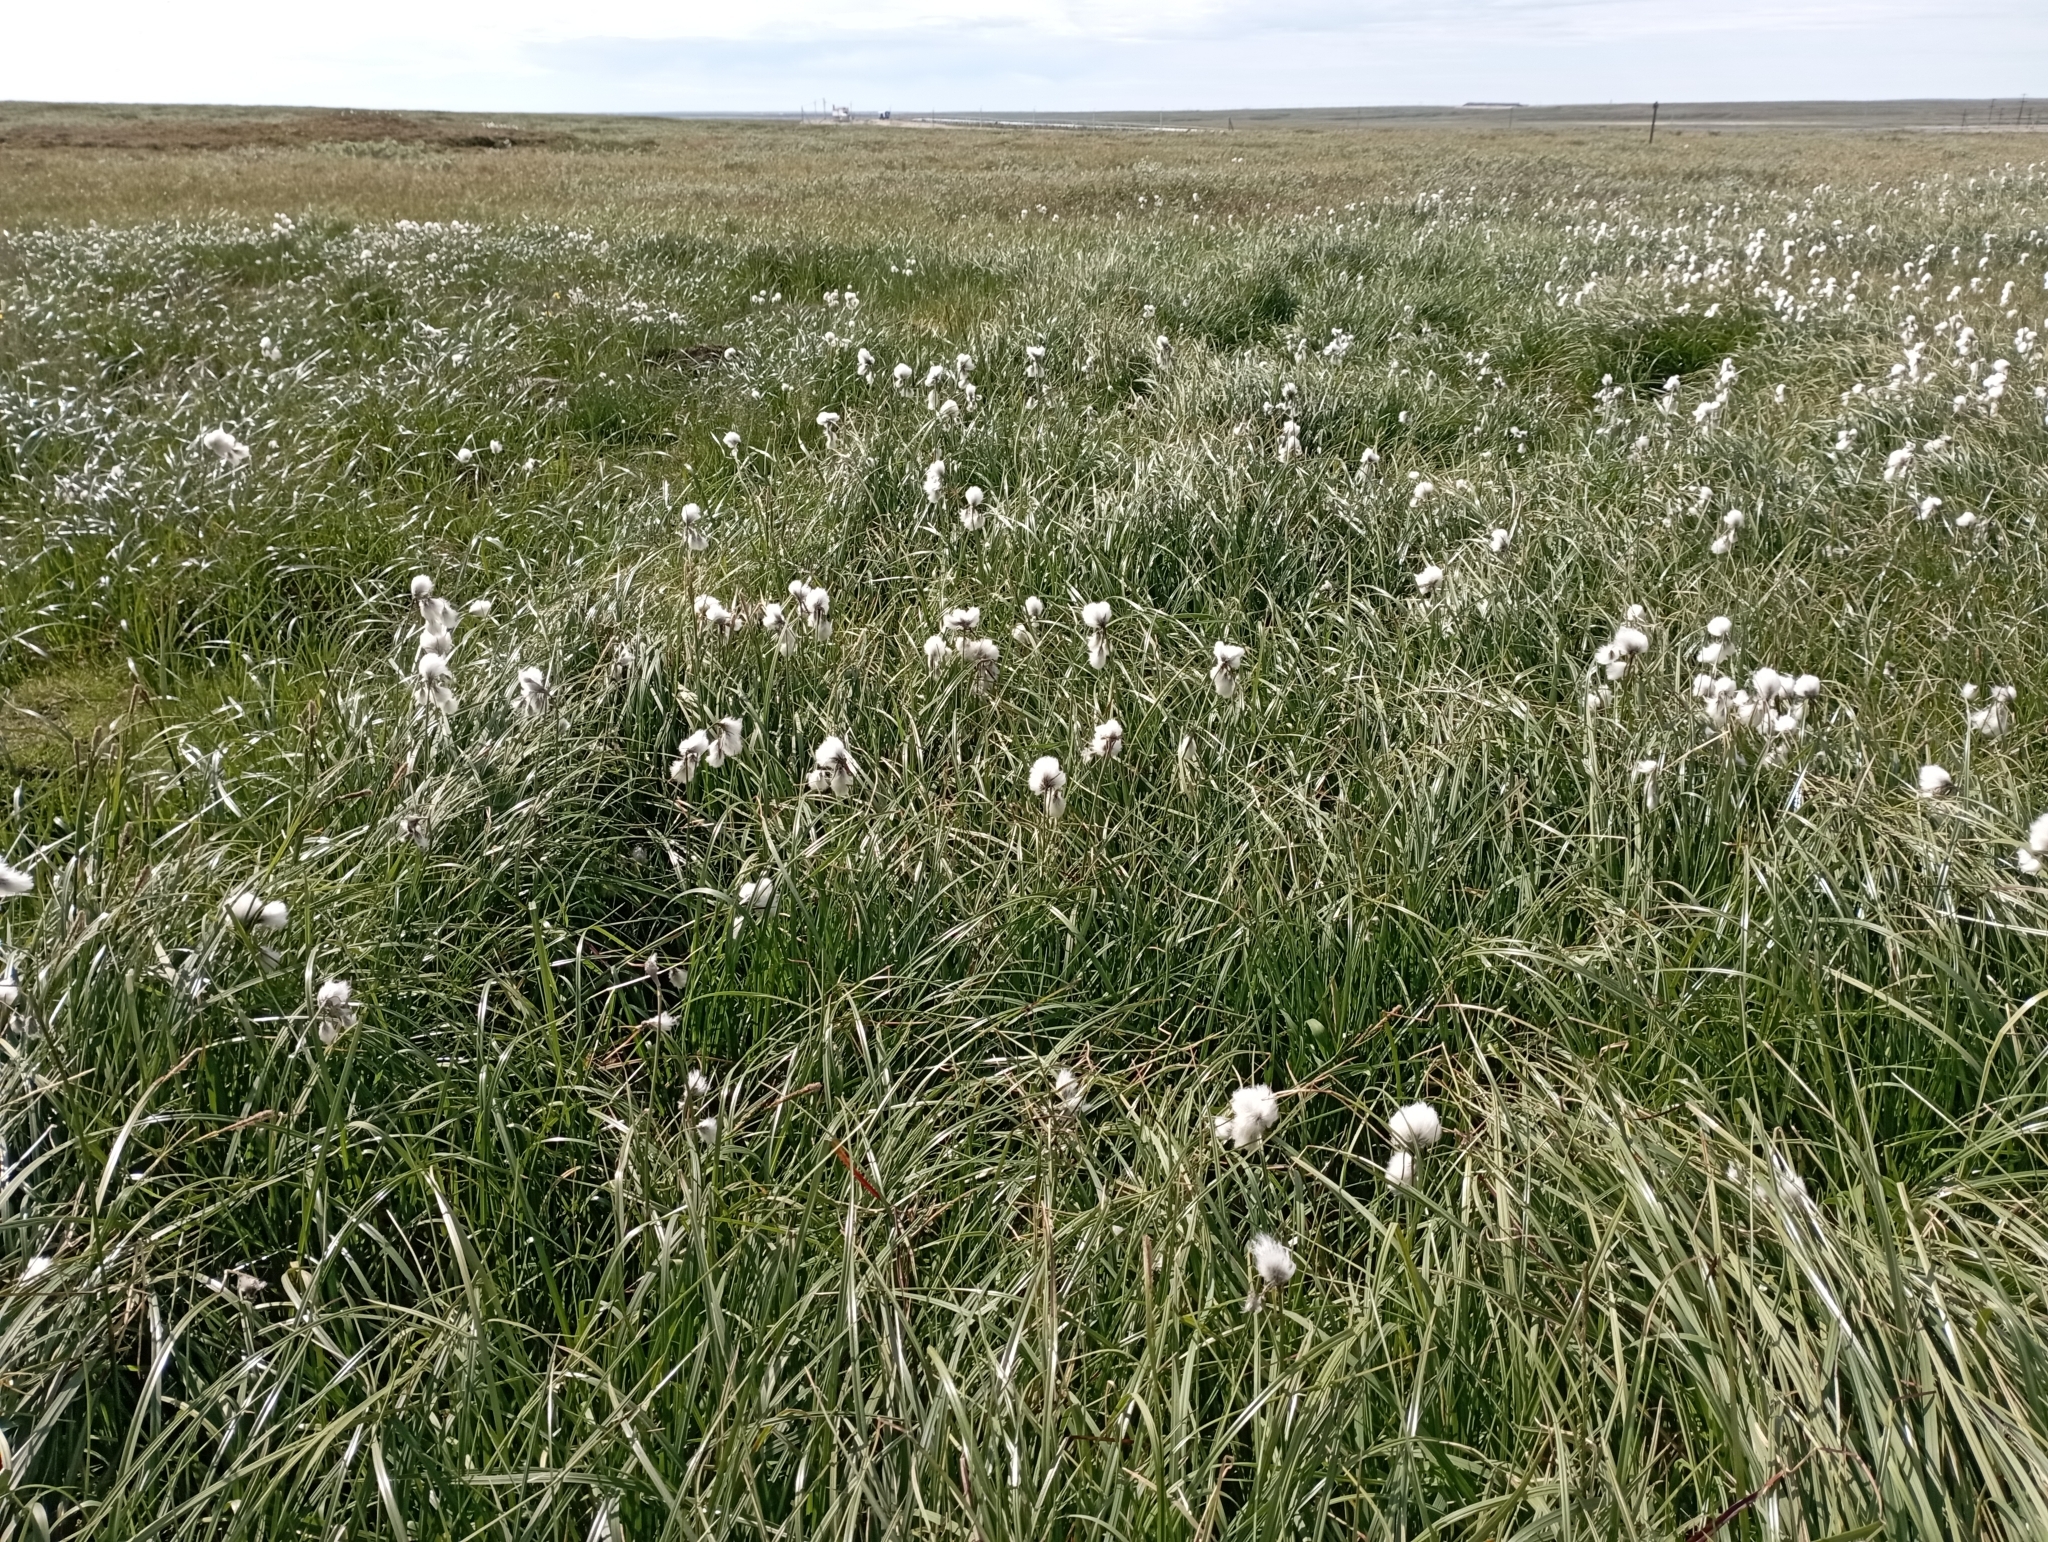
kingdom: Plantae
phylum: Tracheophyta
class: Liliopsida
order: Poales
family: Cyperaceae
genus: Eriophorum
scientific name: Eriophorum angustifolium
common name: Common cottongrass
